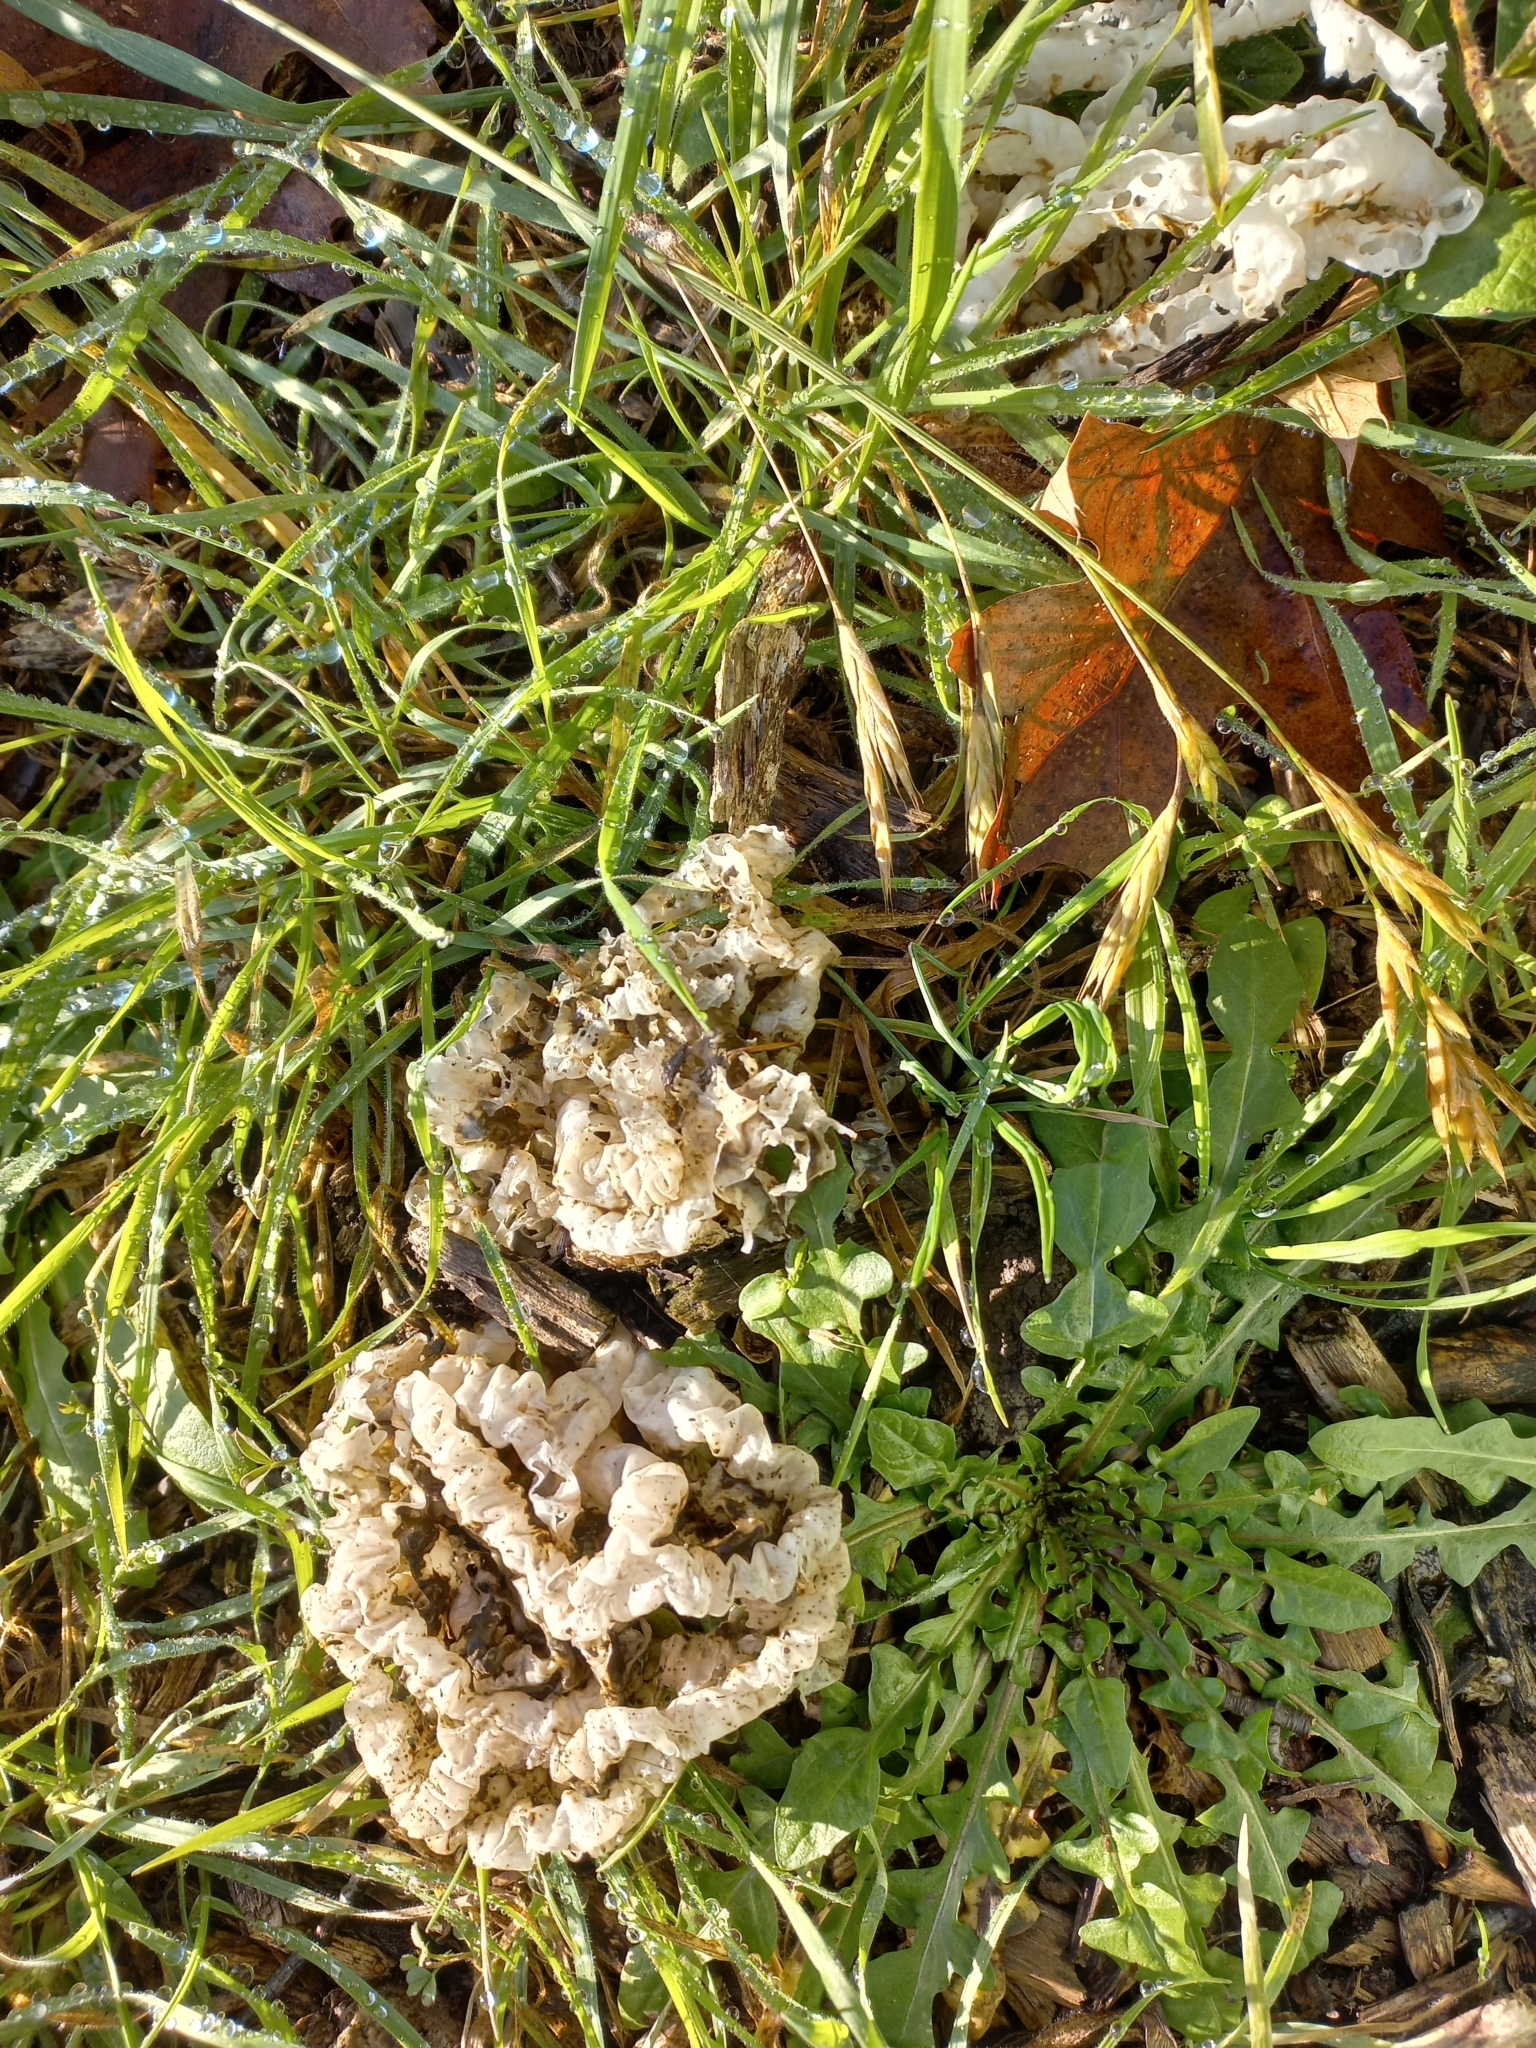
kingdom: Fungi
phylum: Basidiomycota
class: Agaricomycetes
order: Phallales
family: Phallaceae
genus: Ileodictyon
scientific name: Ileodictyon cibarium
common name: Basket fungus
